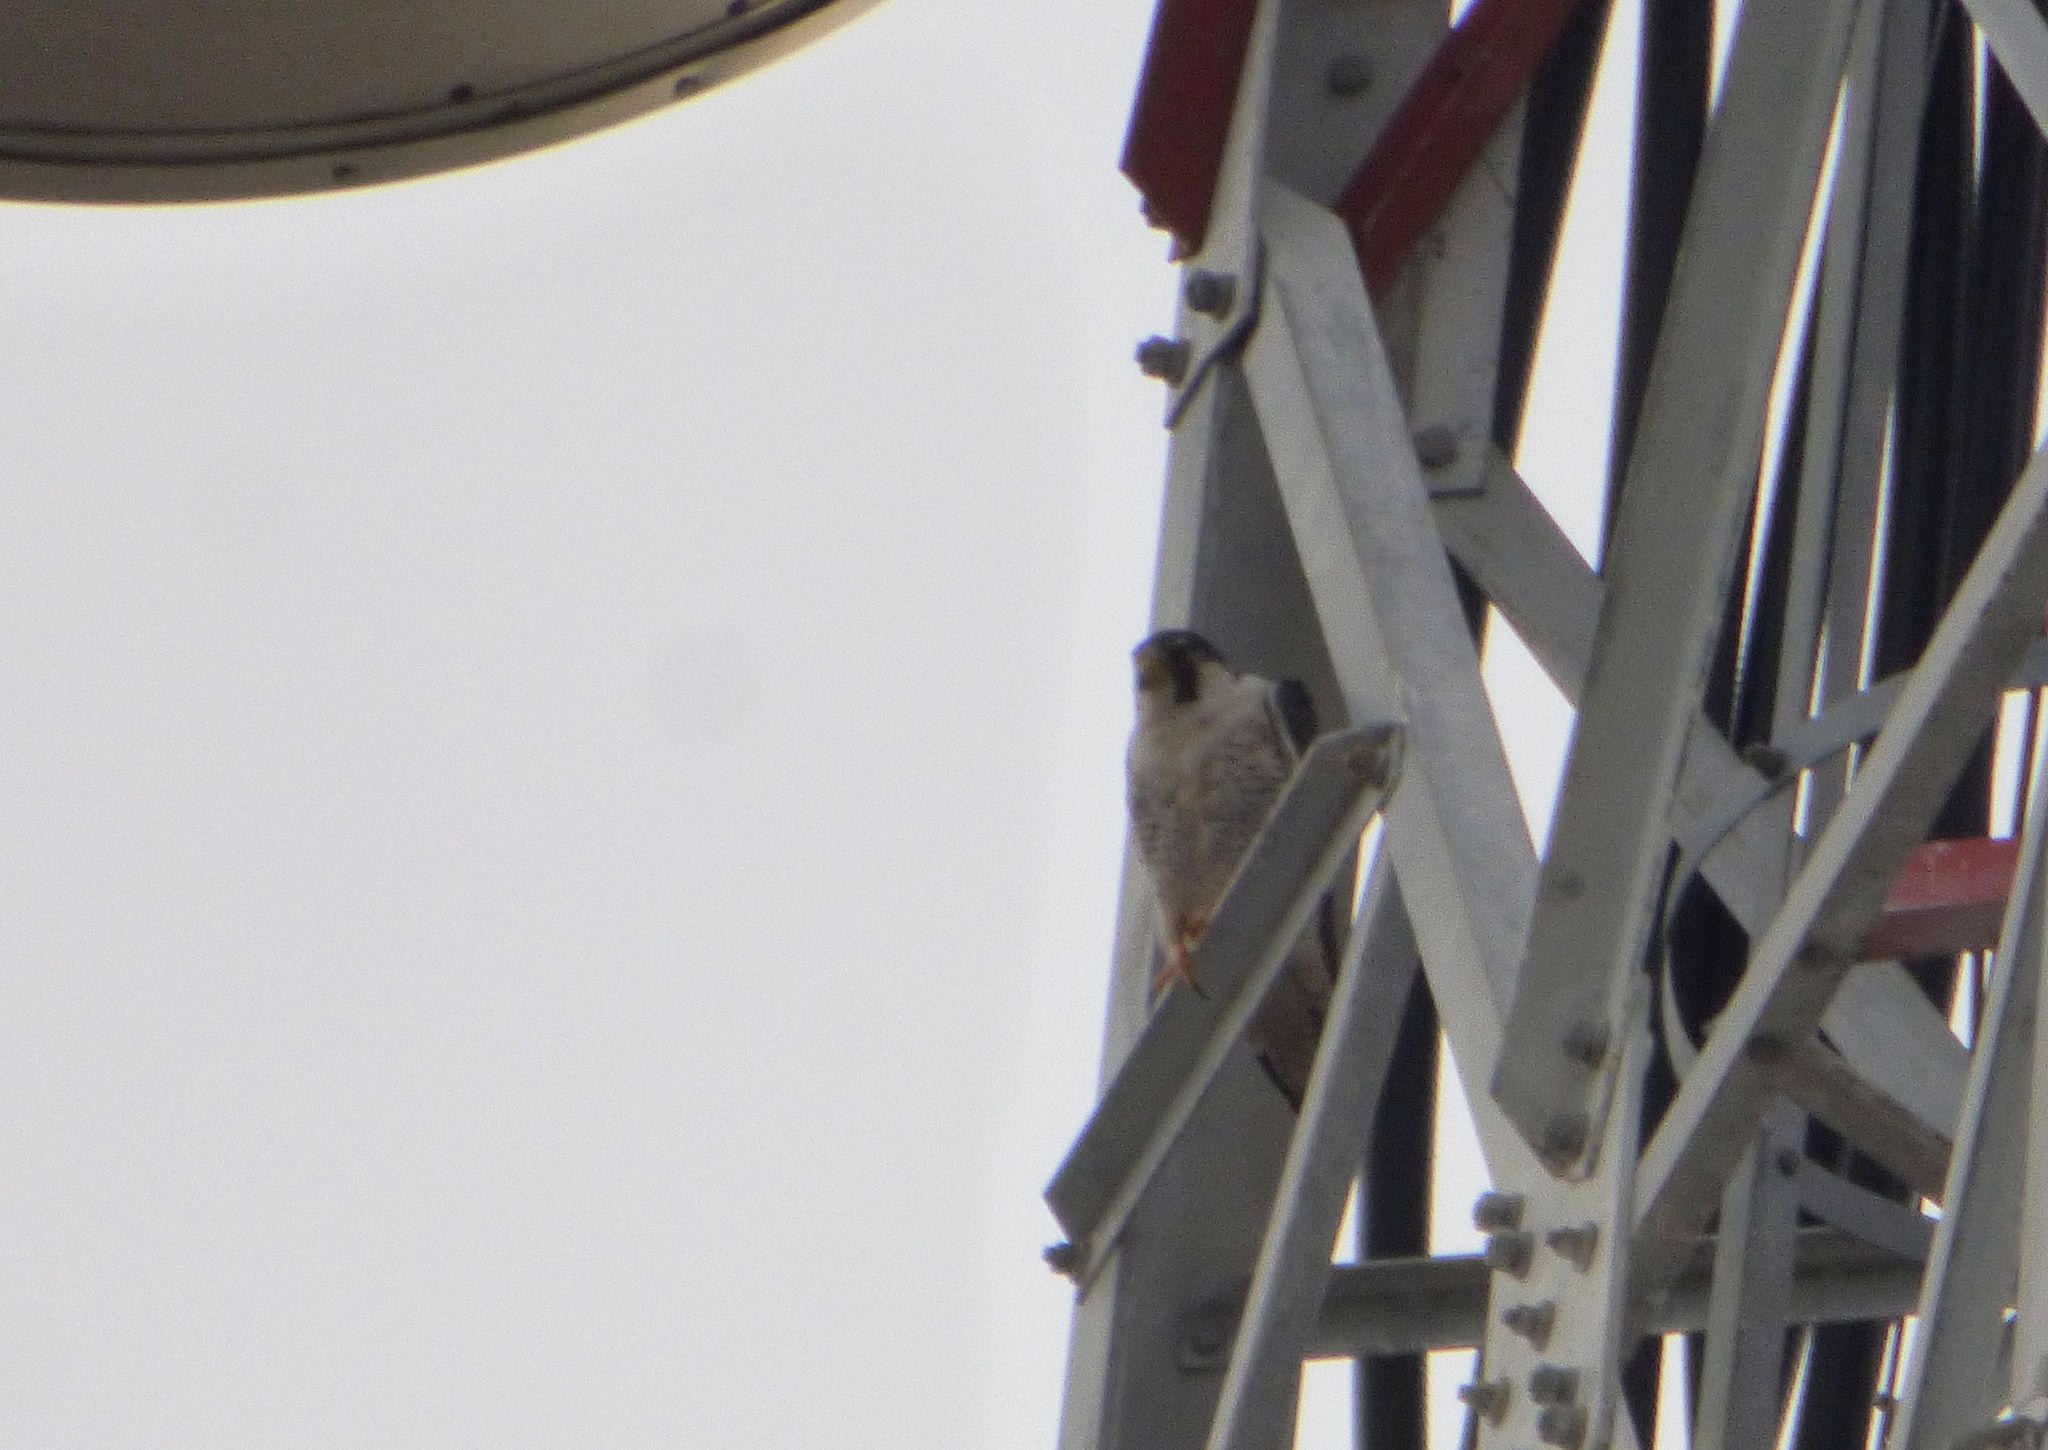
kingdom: Animalia
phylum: Chordata
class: Aves
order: Falconiformes
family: Falconidae
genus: Falco
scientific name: Falco peregrinus
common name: Peregrine falcon
